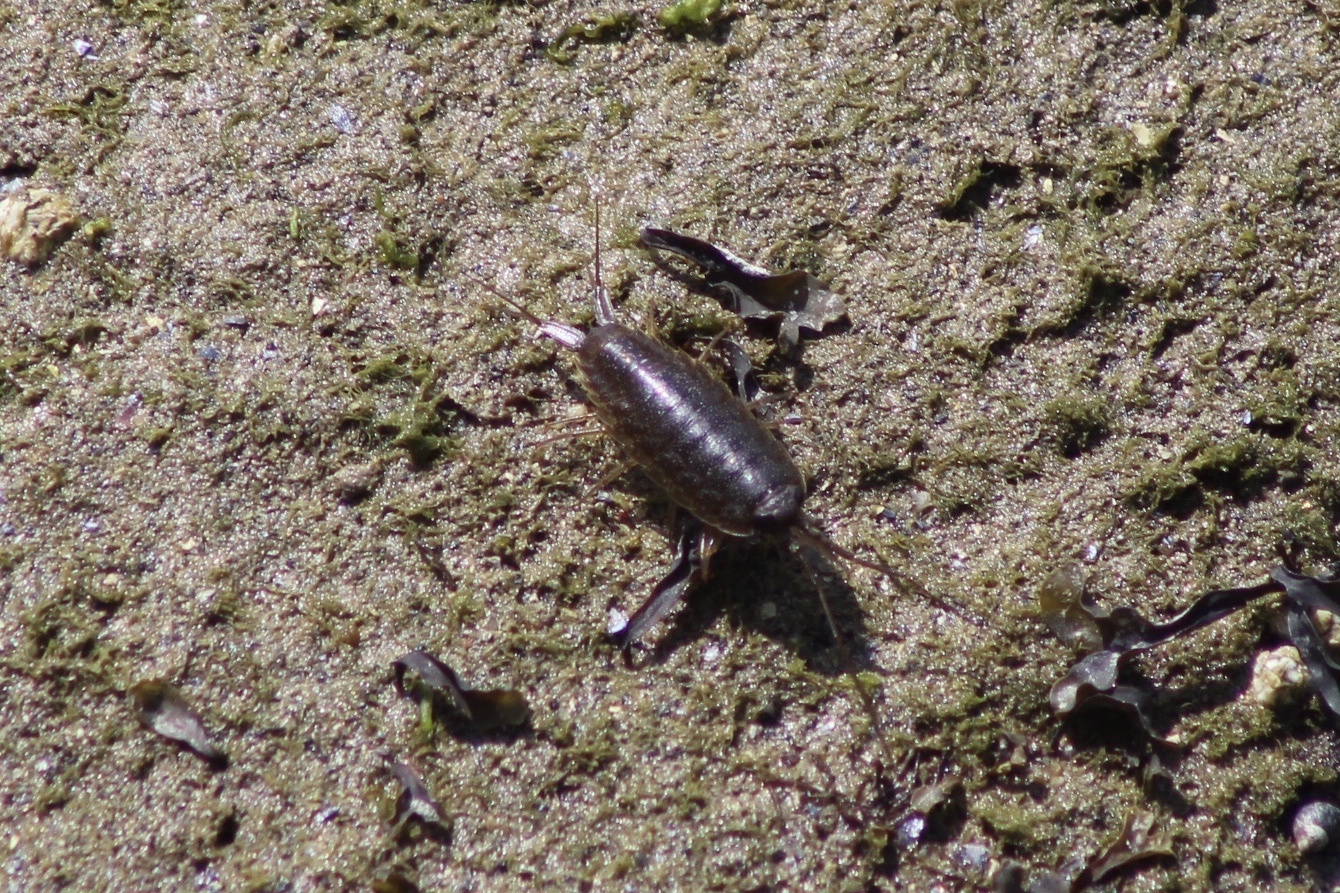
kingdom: Animalia
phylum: Arthropoda
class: Malacostraca
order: Isopoda
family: Ligiidae
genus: Ligia
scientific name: Ligia occidentalis
